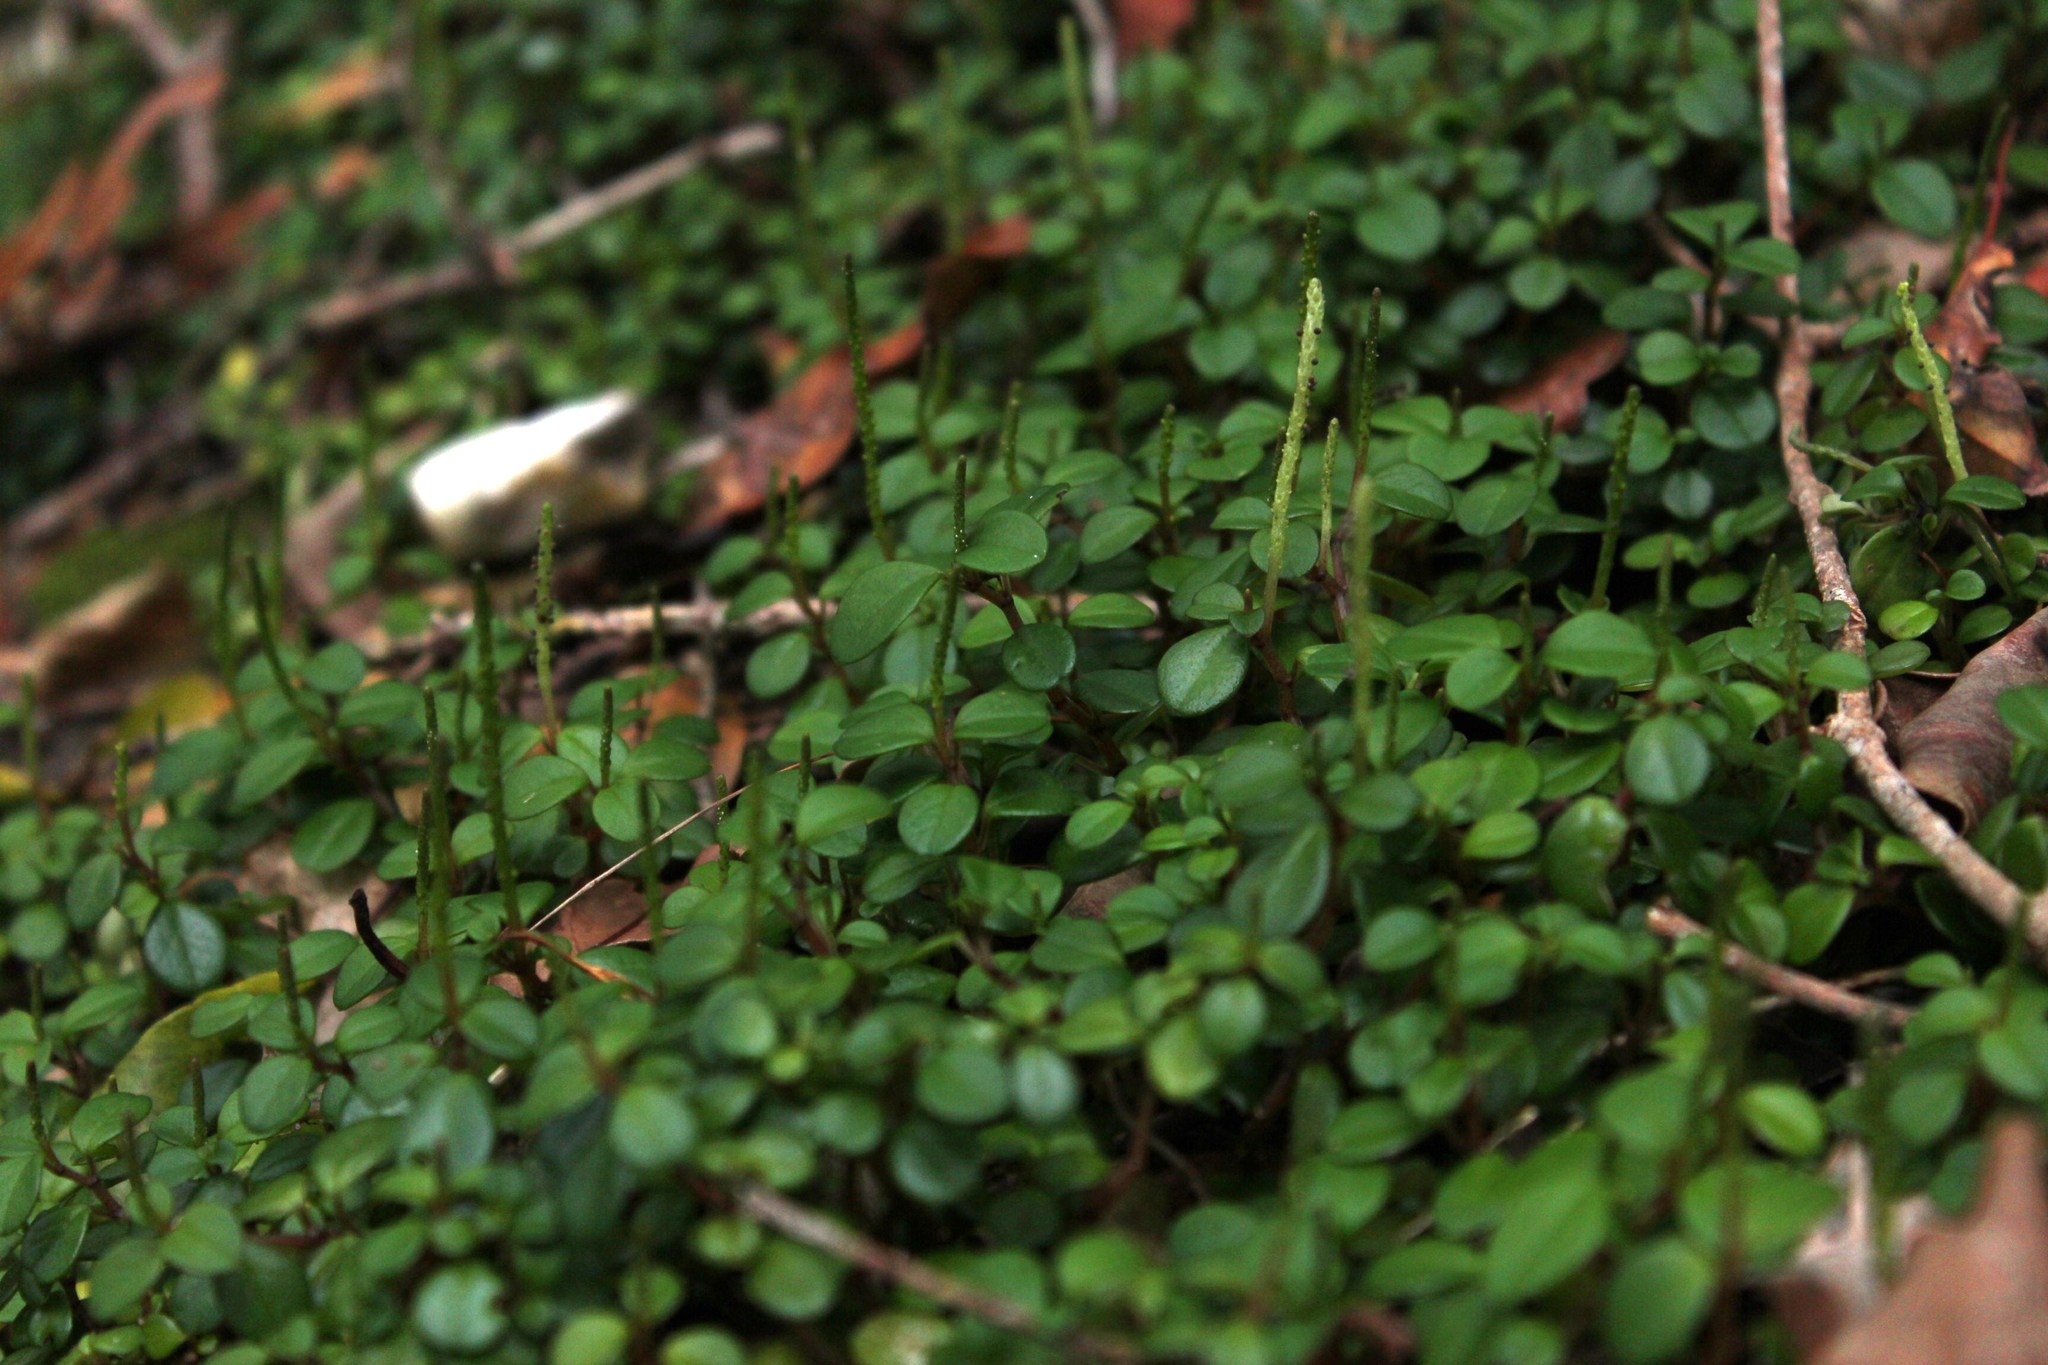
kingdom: Plantae
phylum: Tracheophyta
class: Magnoliopsida
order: Piperales
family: Piperaceae
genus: Peperomia
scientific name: Peperomia retusa
